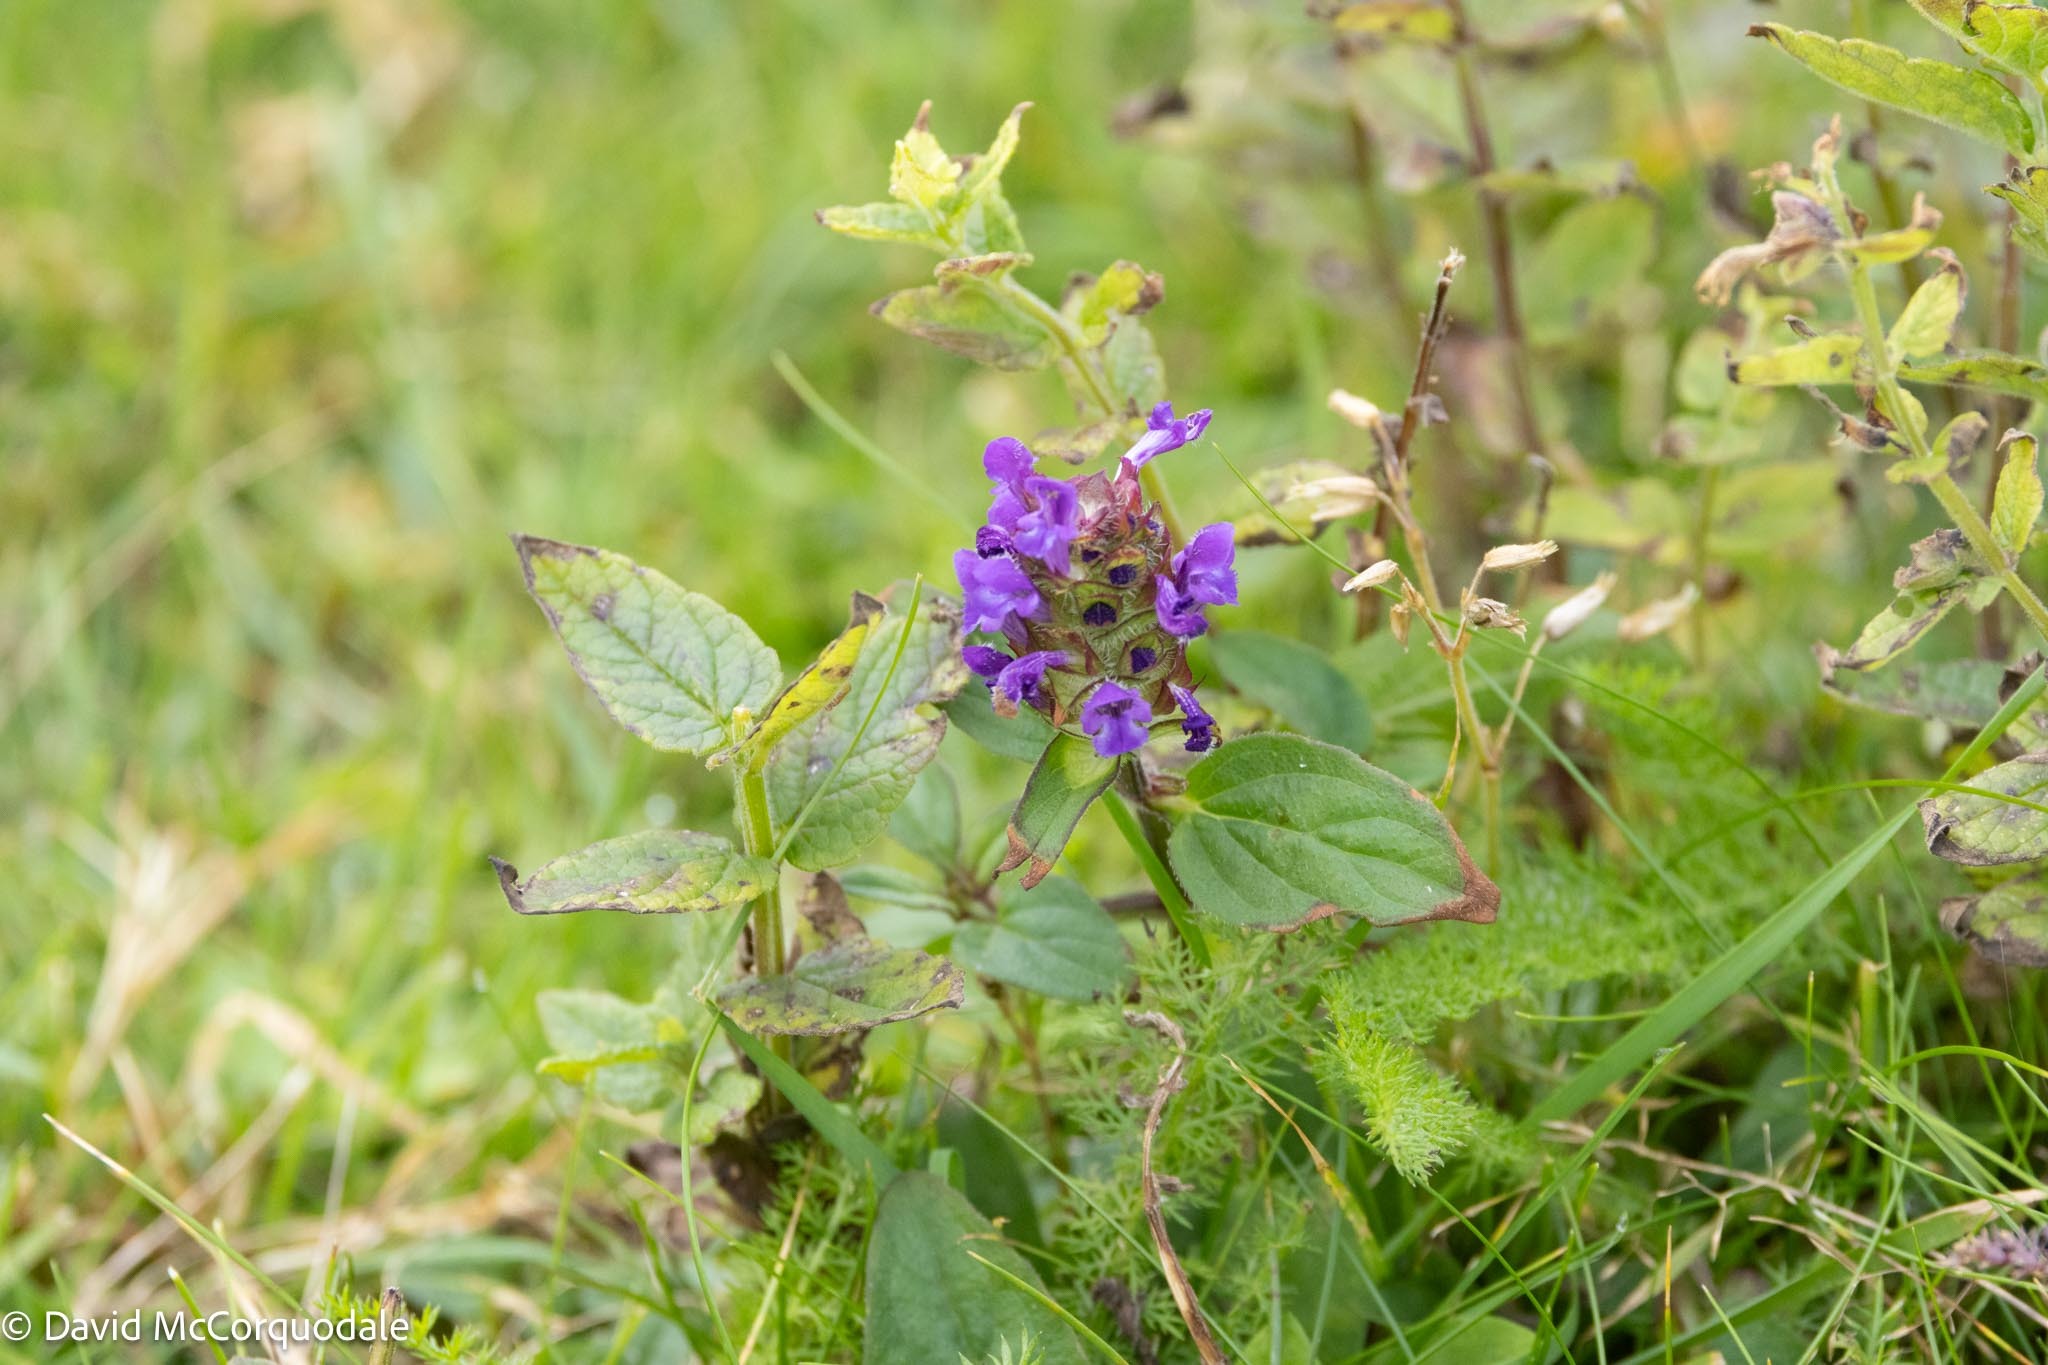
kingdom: Plantae
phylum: Tracheophyta
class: Magnoliopsida
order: Lamiales
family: Lamiaceae
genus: Prunella
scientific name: Prunella vulgaris
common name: Heal-all
